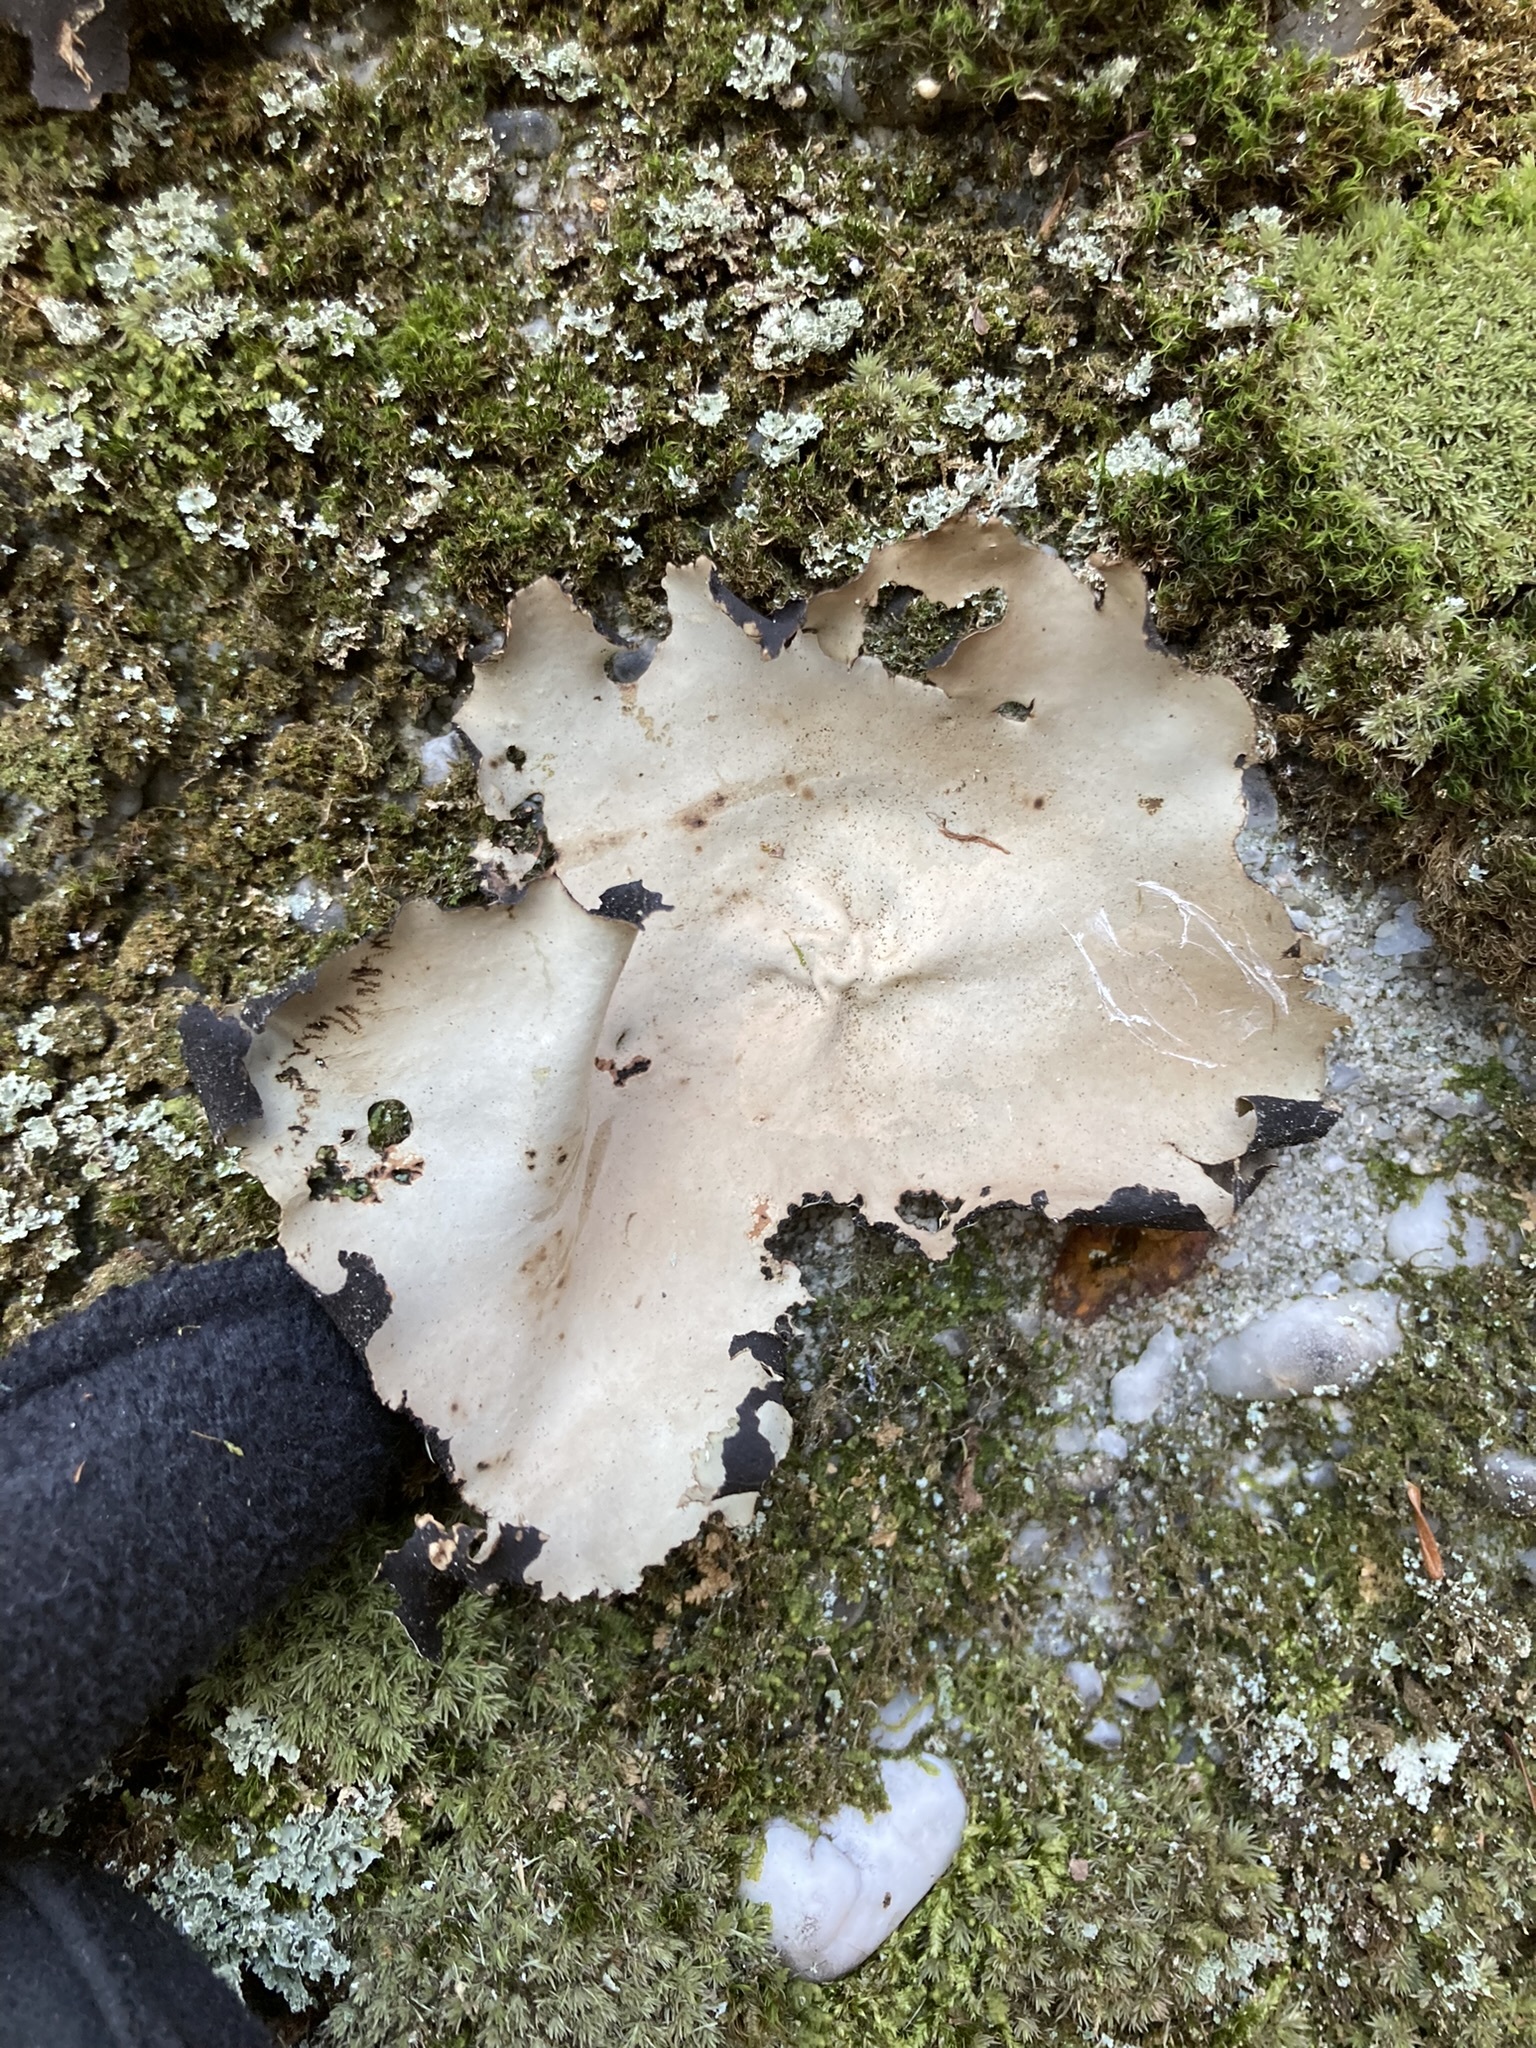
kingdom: Fungi
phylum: Ascomycota
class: Lecanoromycetes
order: Umbilicariales
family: Umbilicariaceae
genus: Umbilicaria
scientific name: Umbilicaria mammulata
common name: Smooth rock tripe
